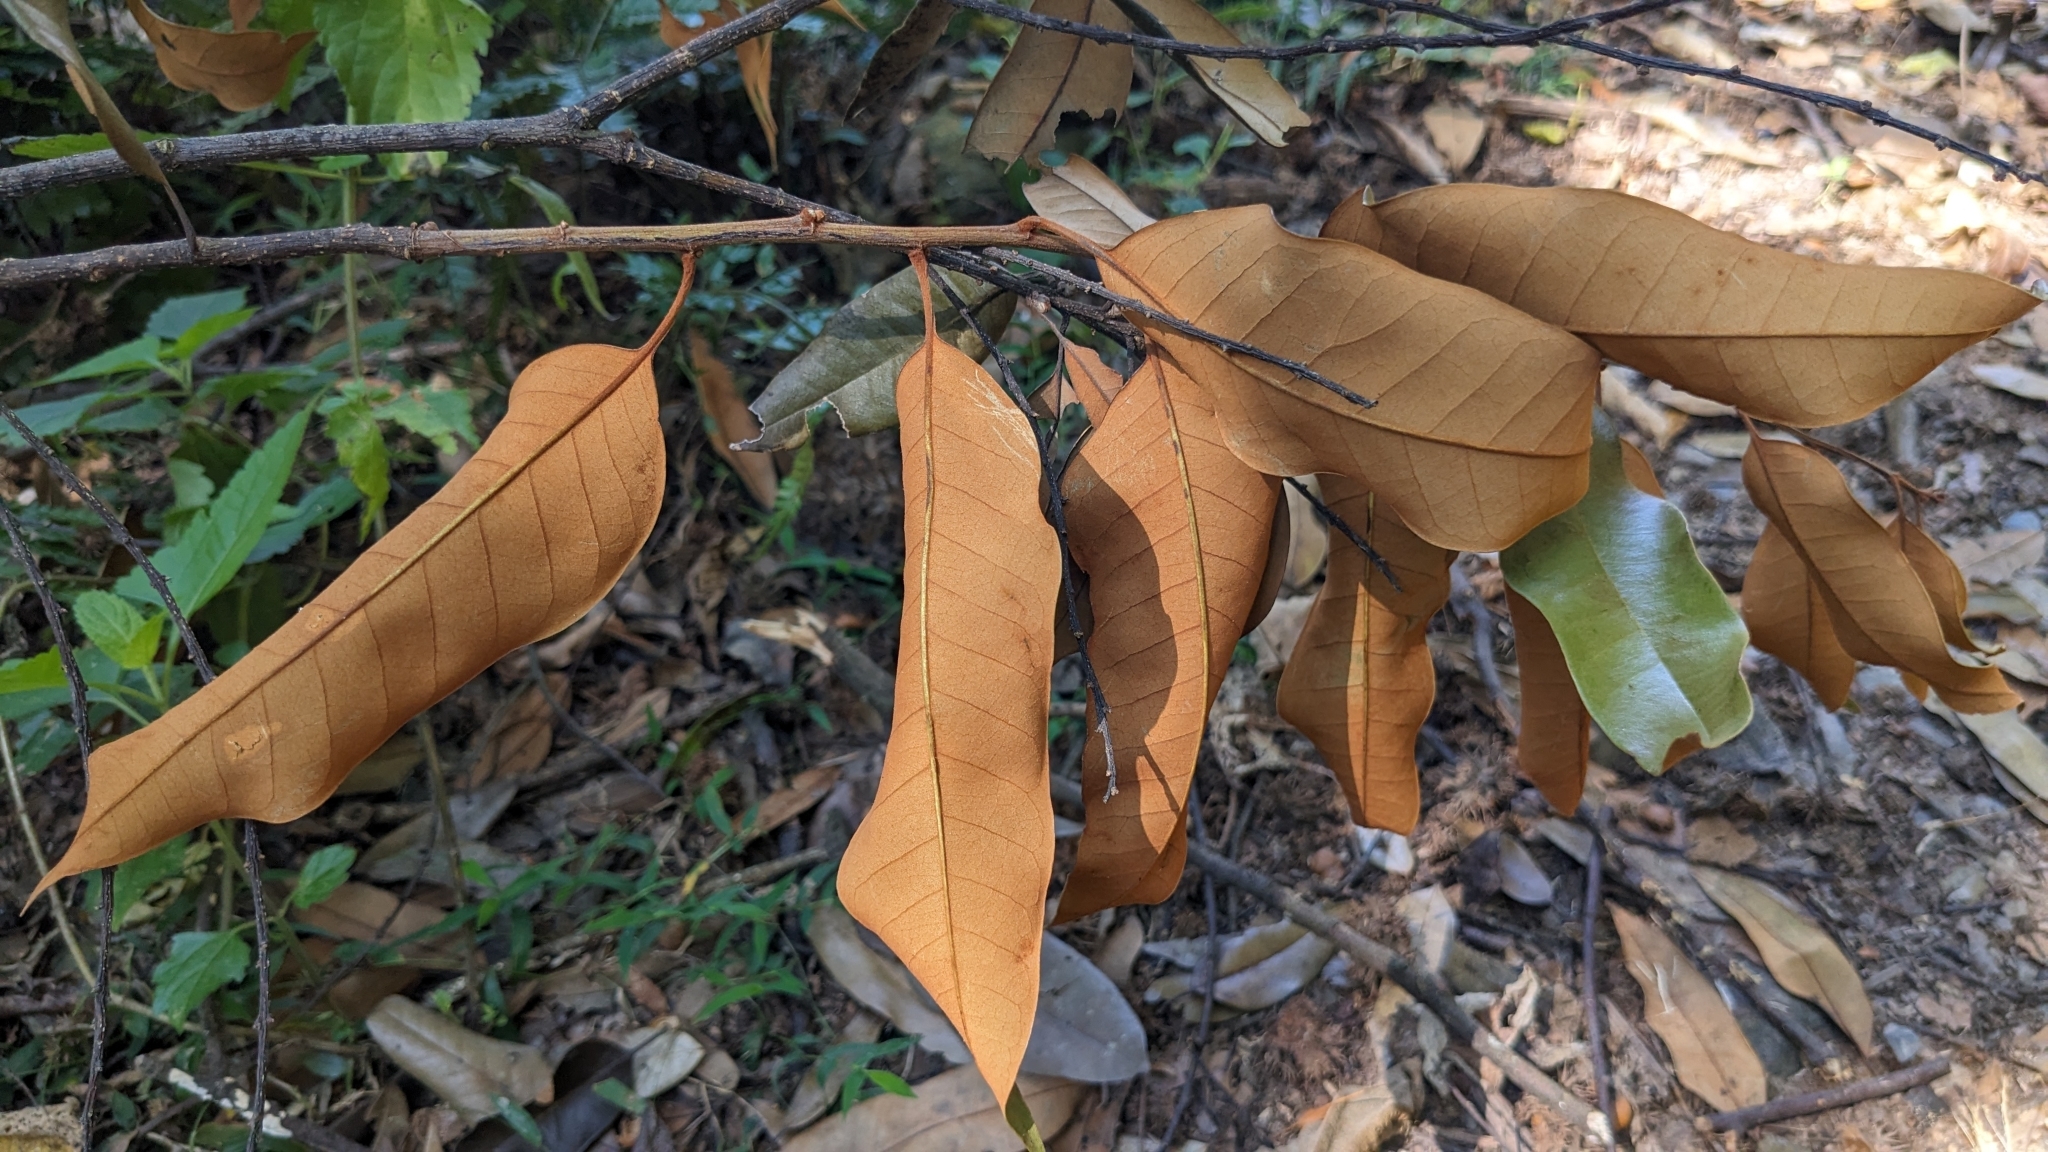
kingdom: Plantae
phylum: Tracheophyta
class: Magnoliopsida
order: Fagales
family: Fagaceae
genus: Castanopsis
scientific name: Castanopsis fargesii
